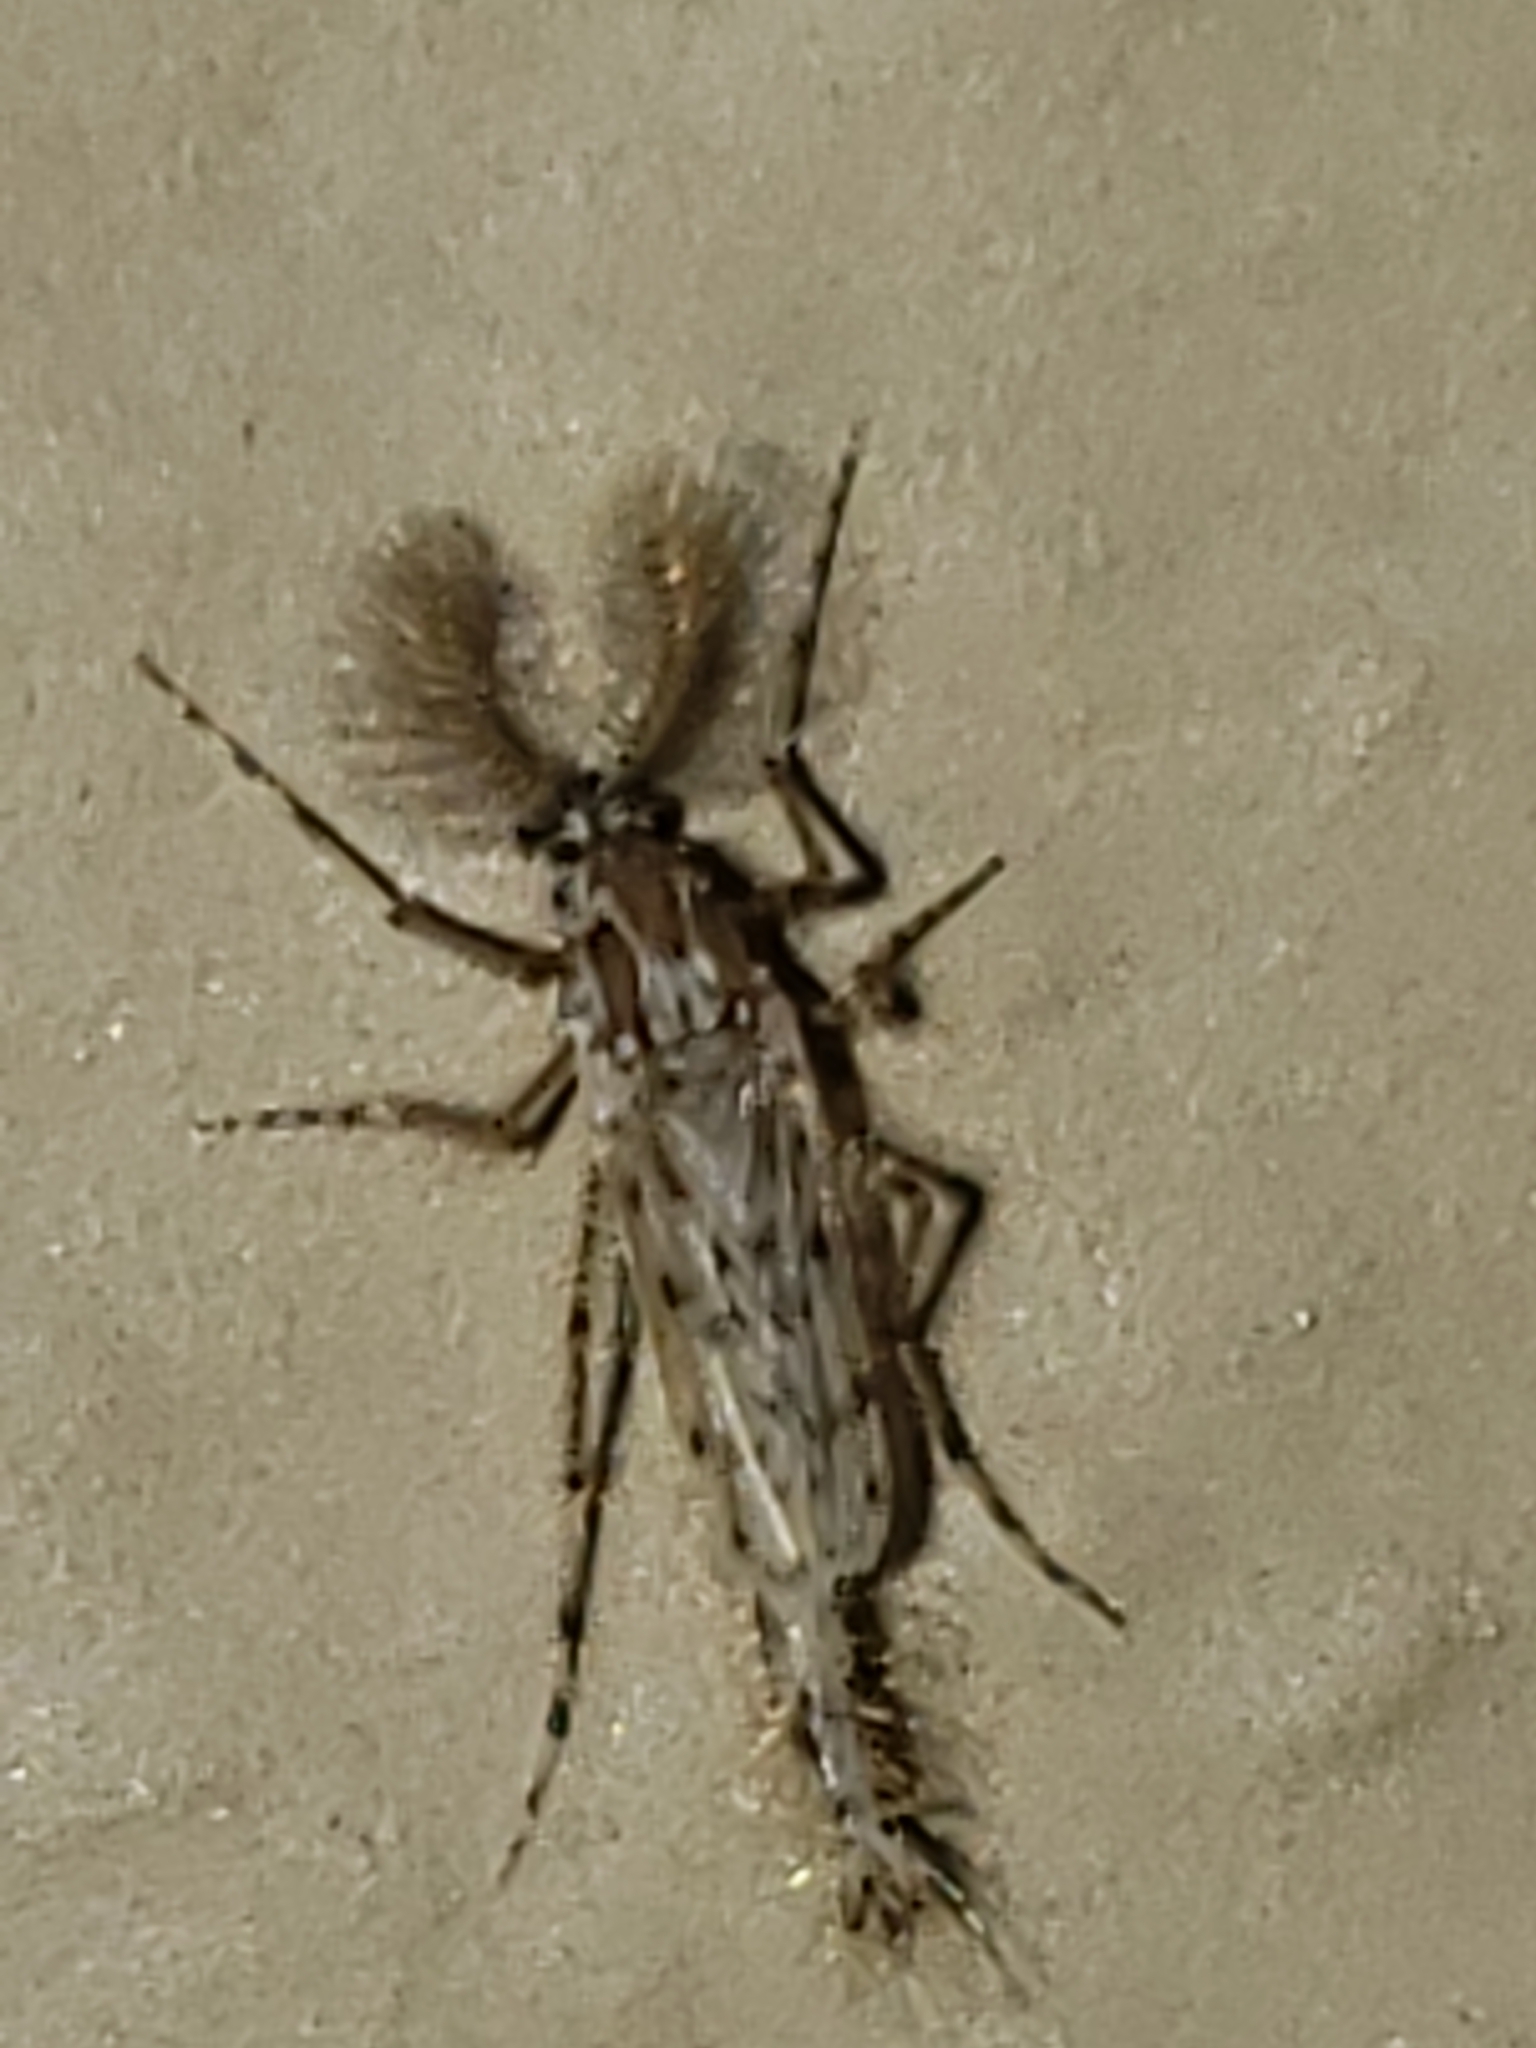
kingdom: Animalia
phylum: Arthropoda
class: Insecta
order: Diptera
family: Chaoboridae
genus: Chaoborus
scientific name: Chaoborus punctipennis
